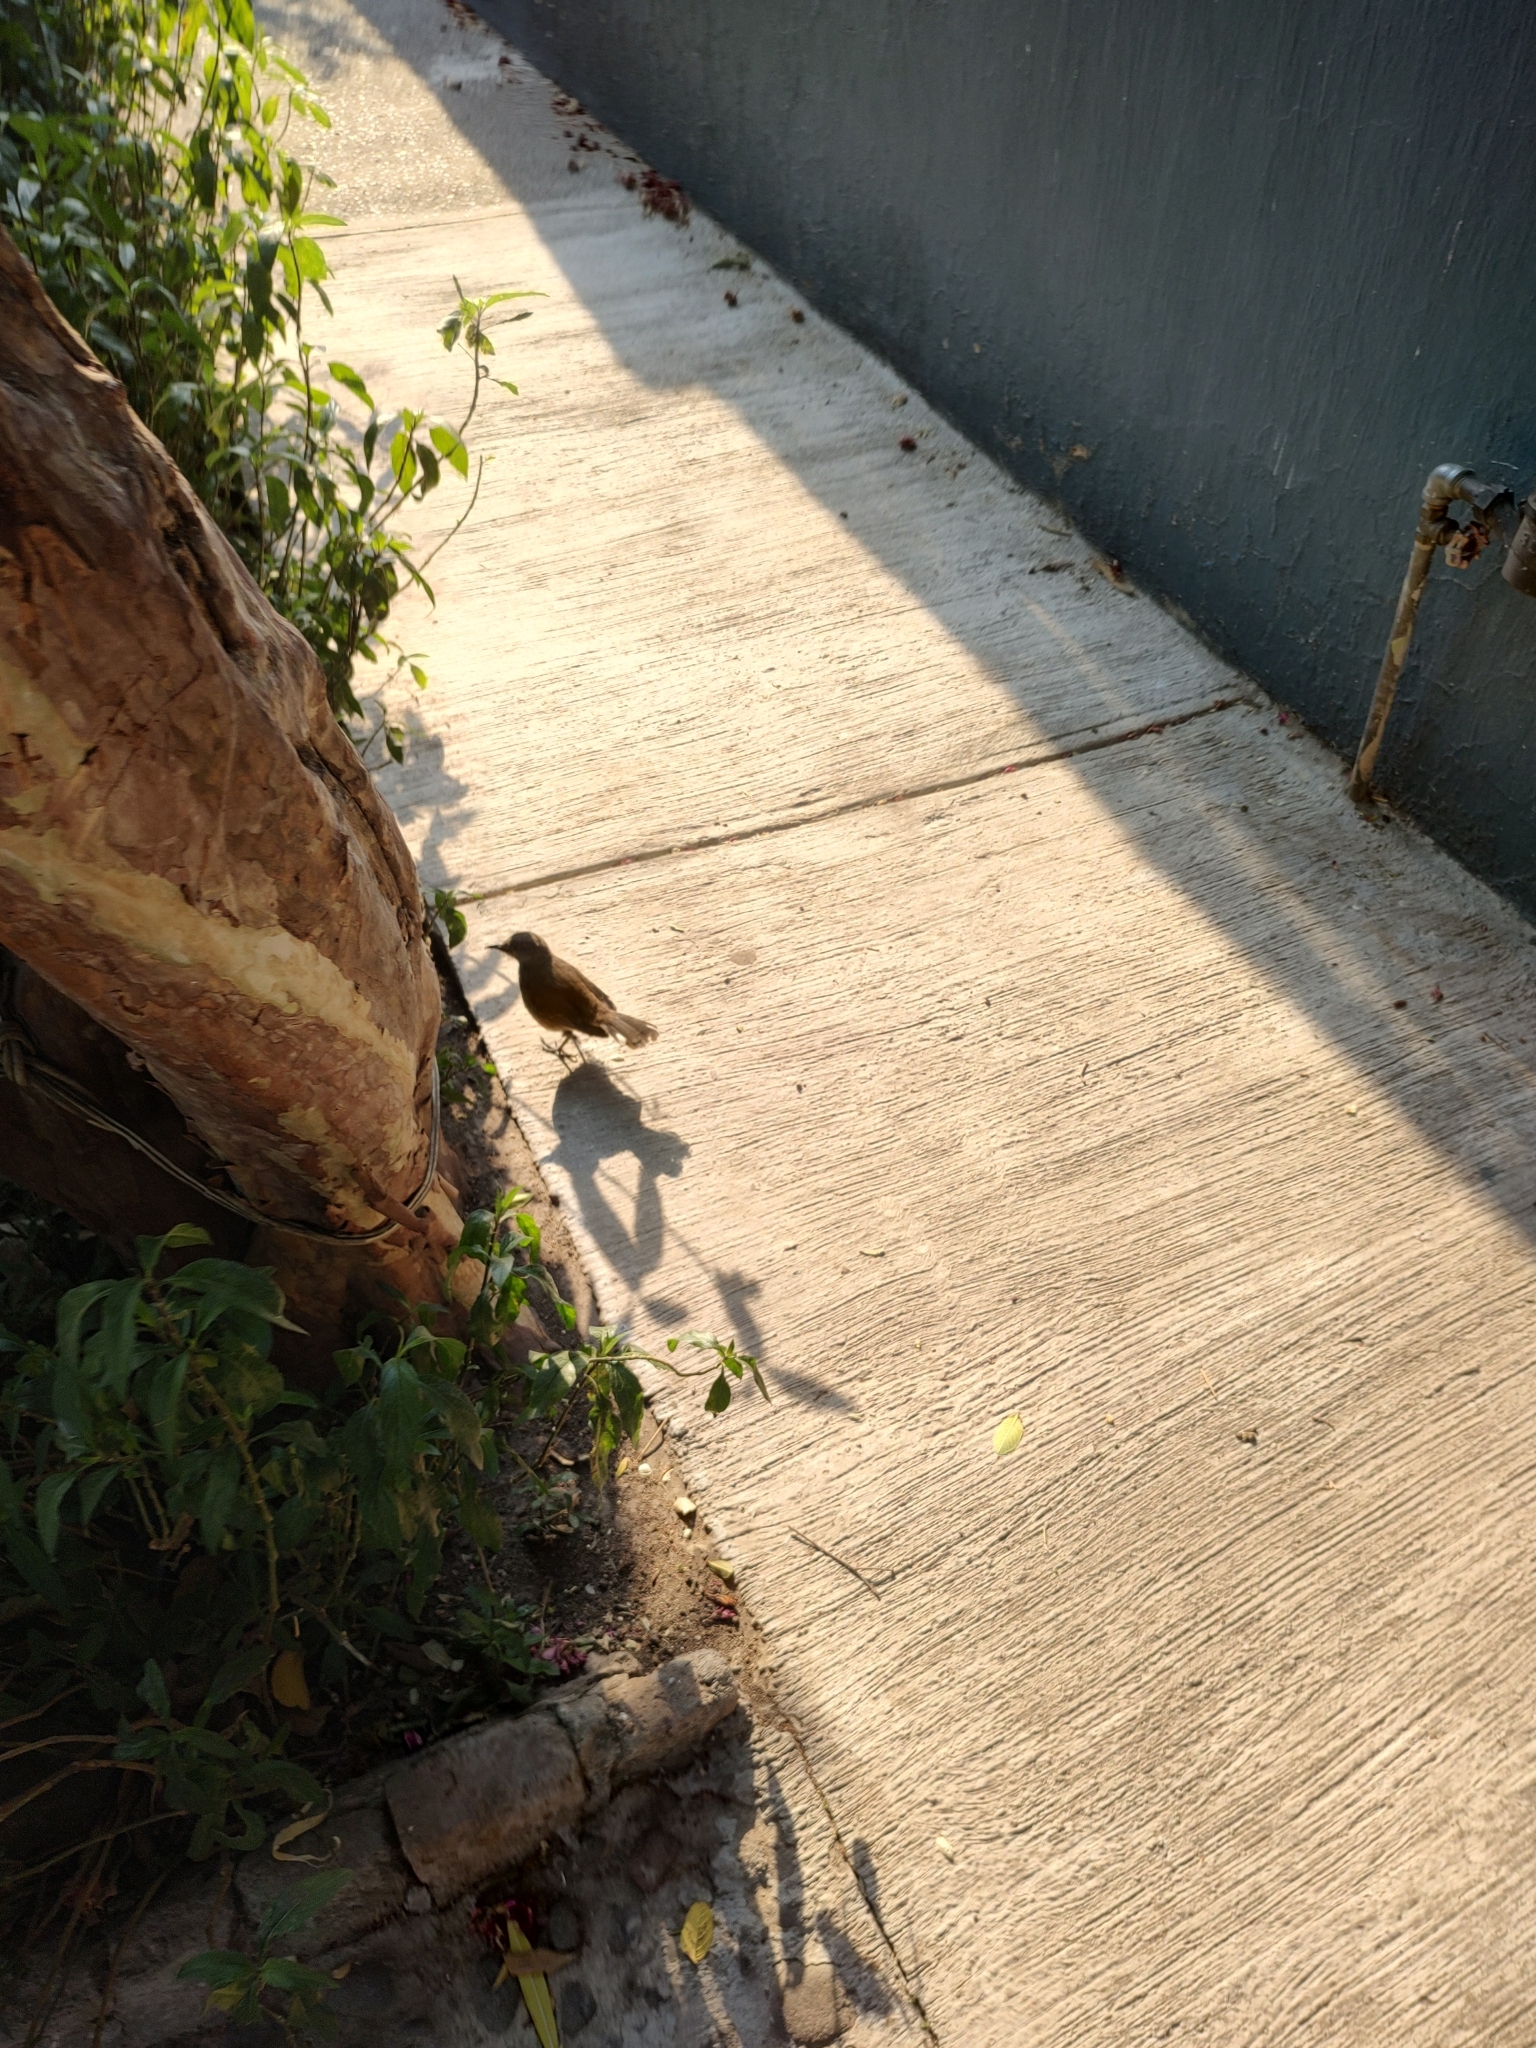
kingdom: Animalia
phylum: Chordata
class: Aves
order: Passeriformes
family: Icteridae
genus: Quiscalus
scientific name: Quiscalus mexicanus
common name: Great-tailed grackle
